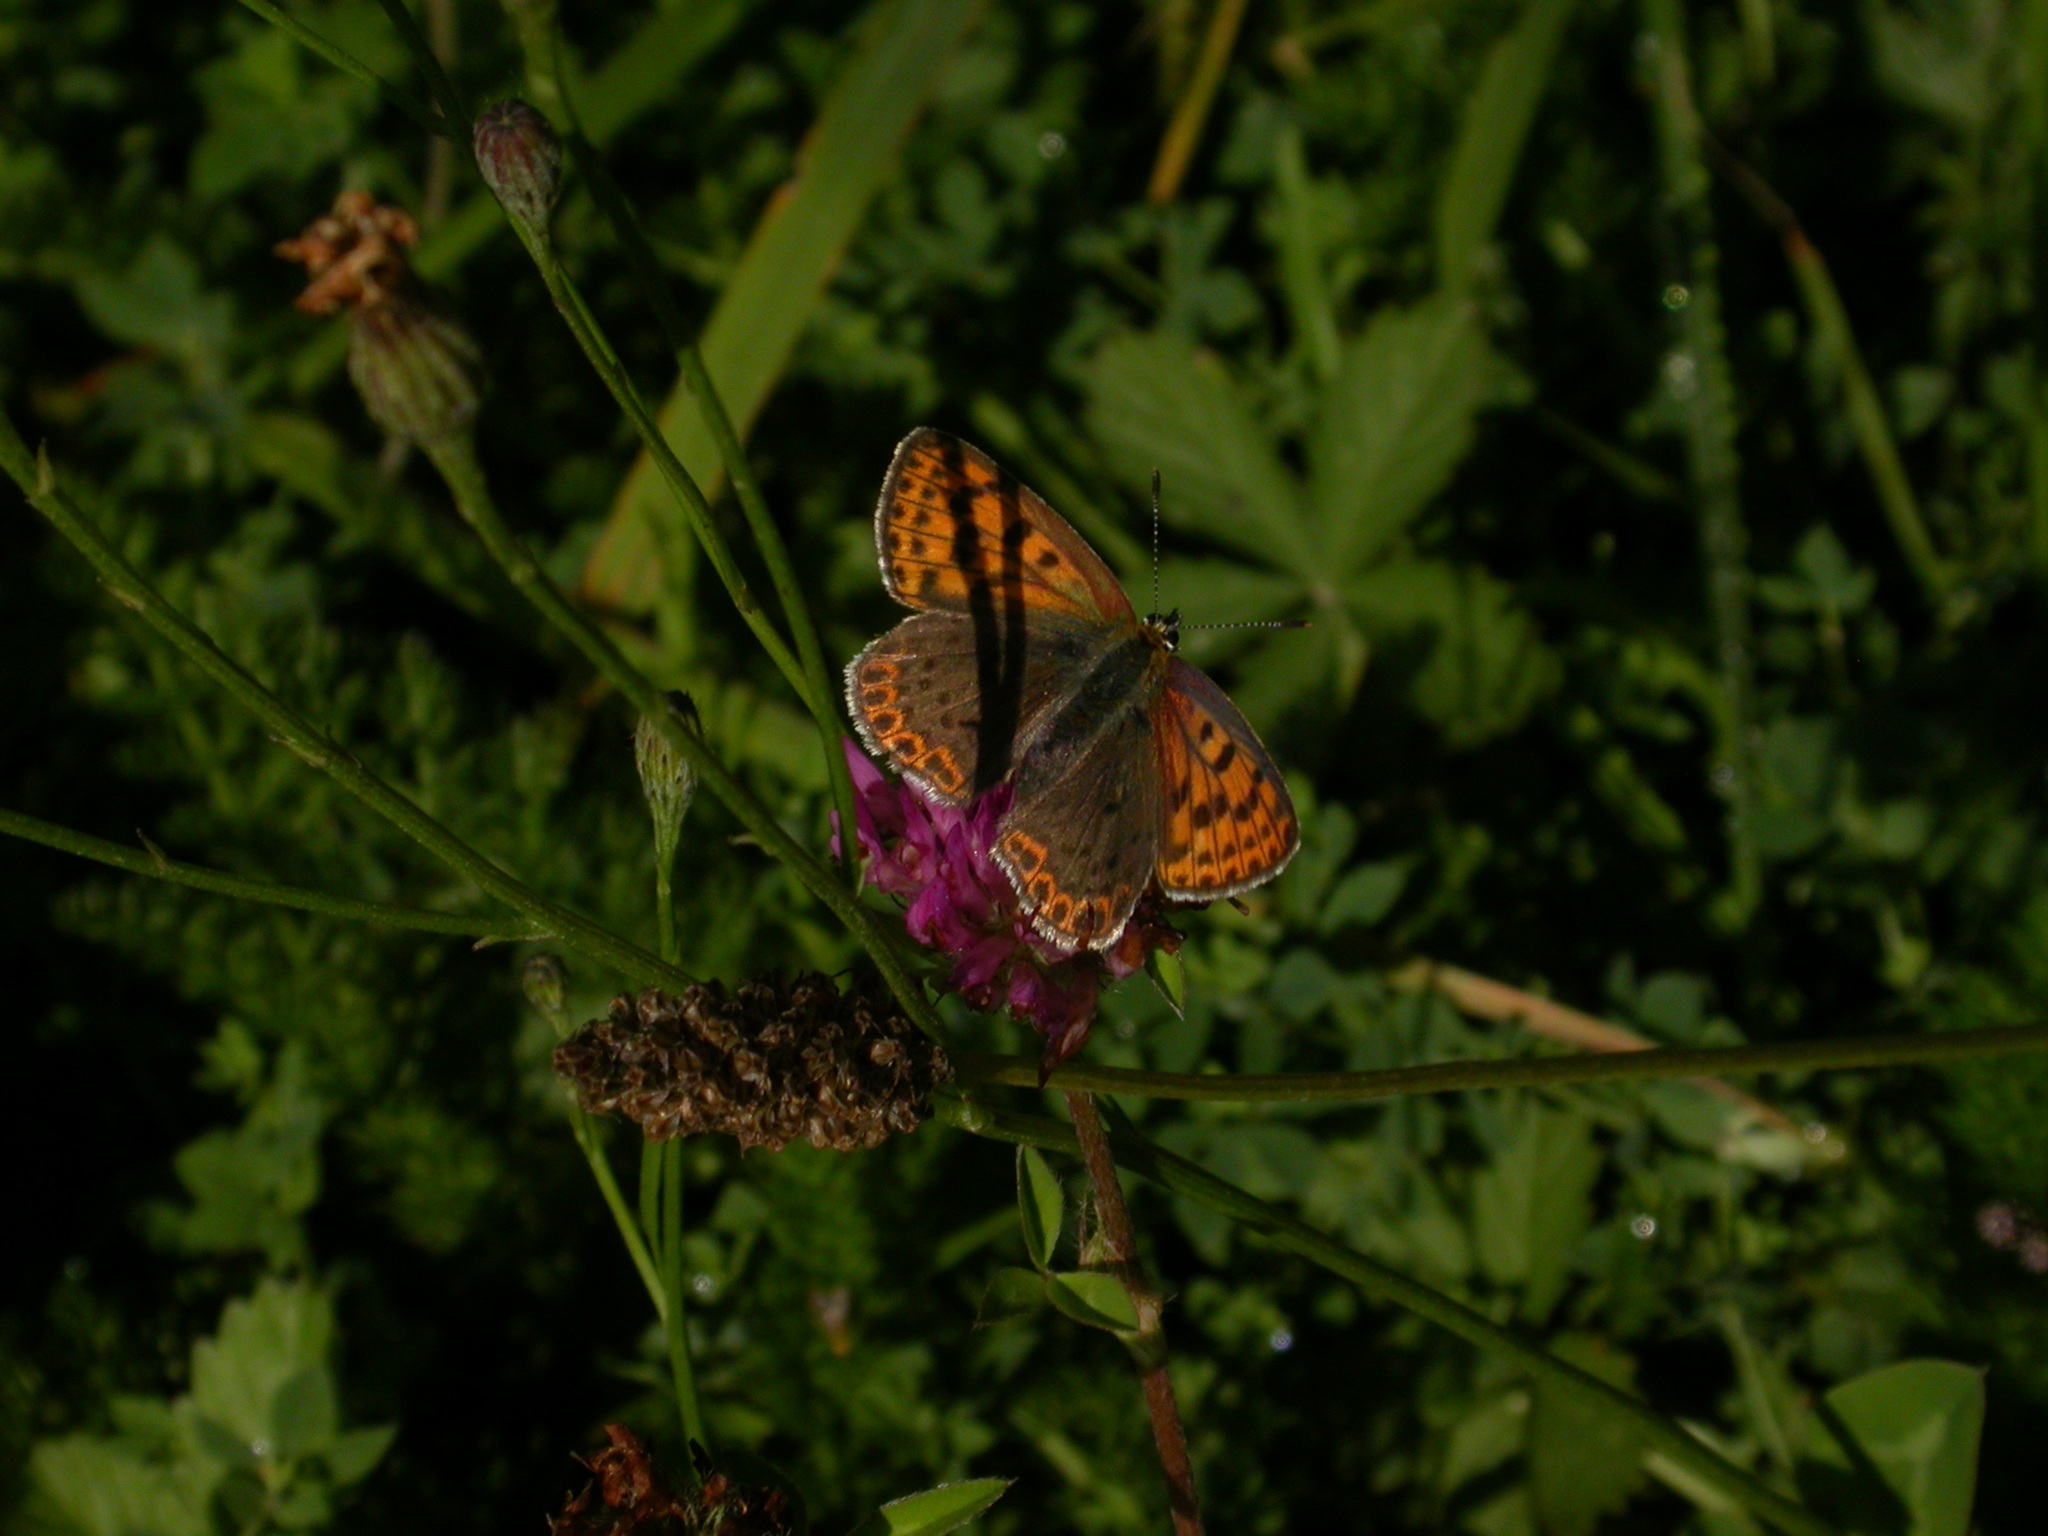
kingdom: Animalia
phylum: Arthropoda
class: Insecta
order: Lepidoptera
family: Lycaenidae
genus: Loweia
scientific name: Loweia tityrus
